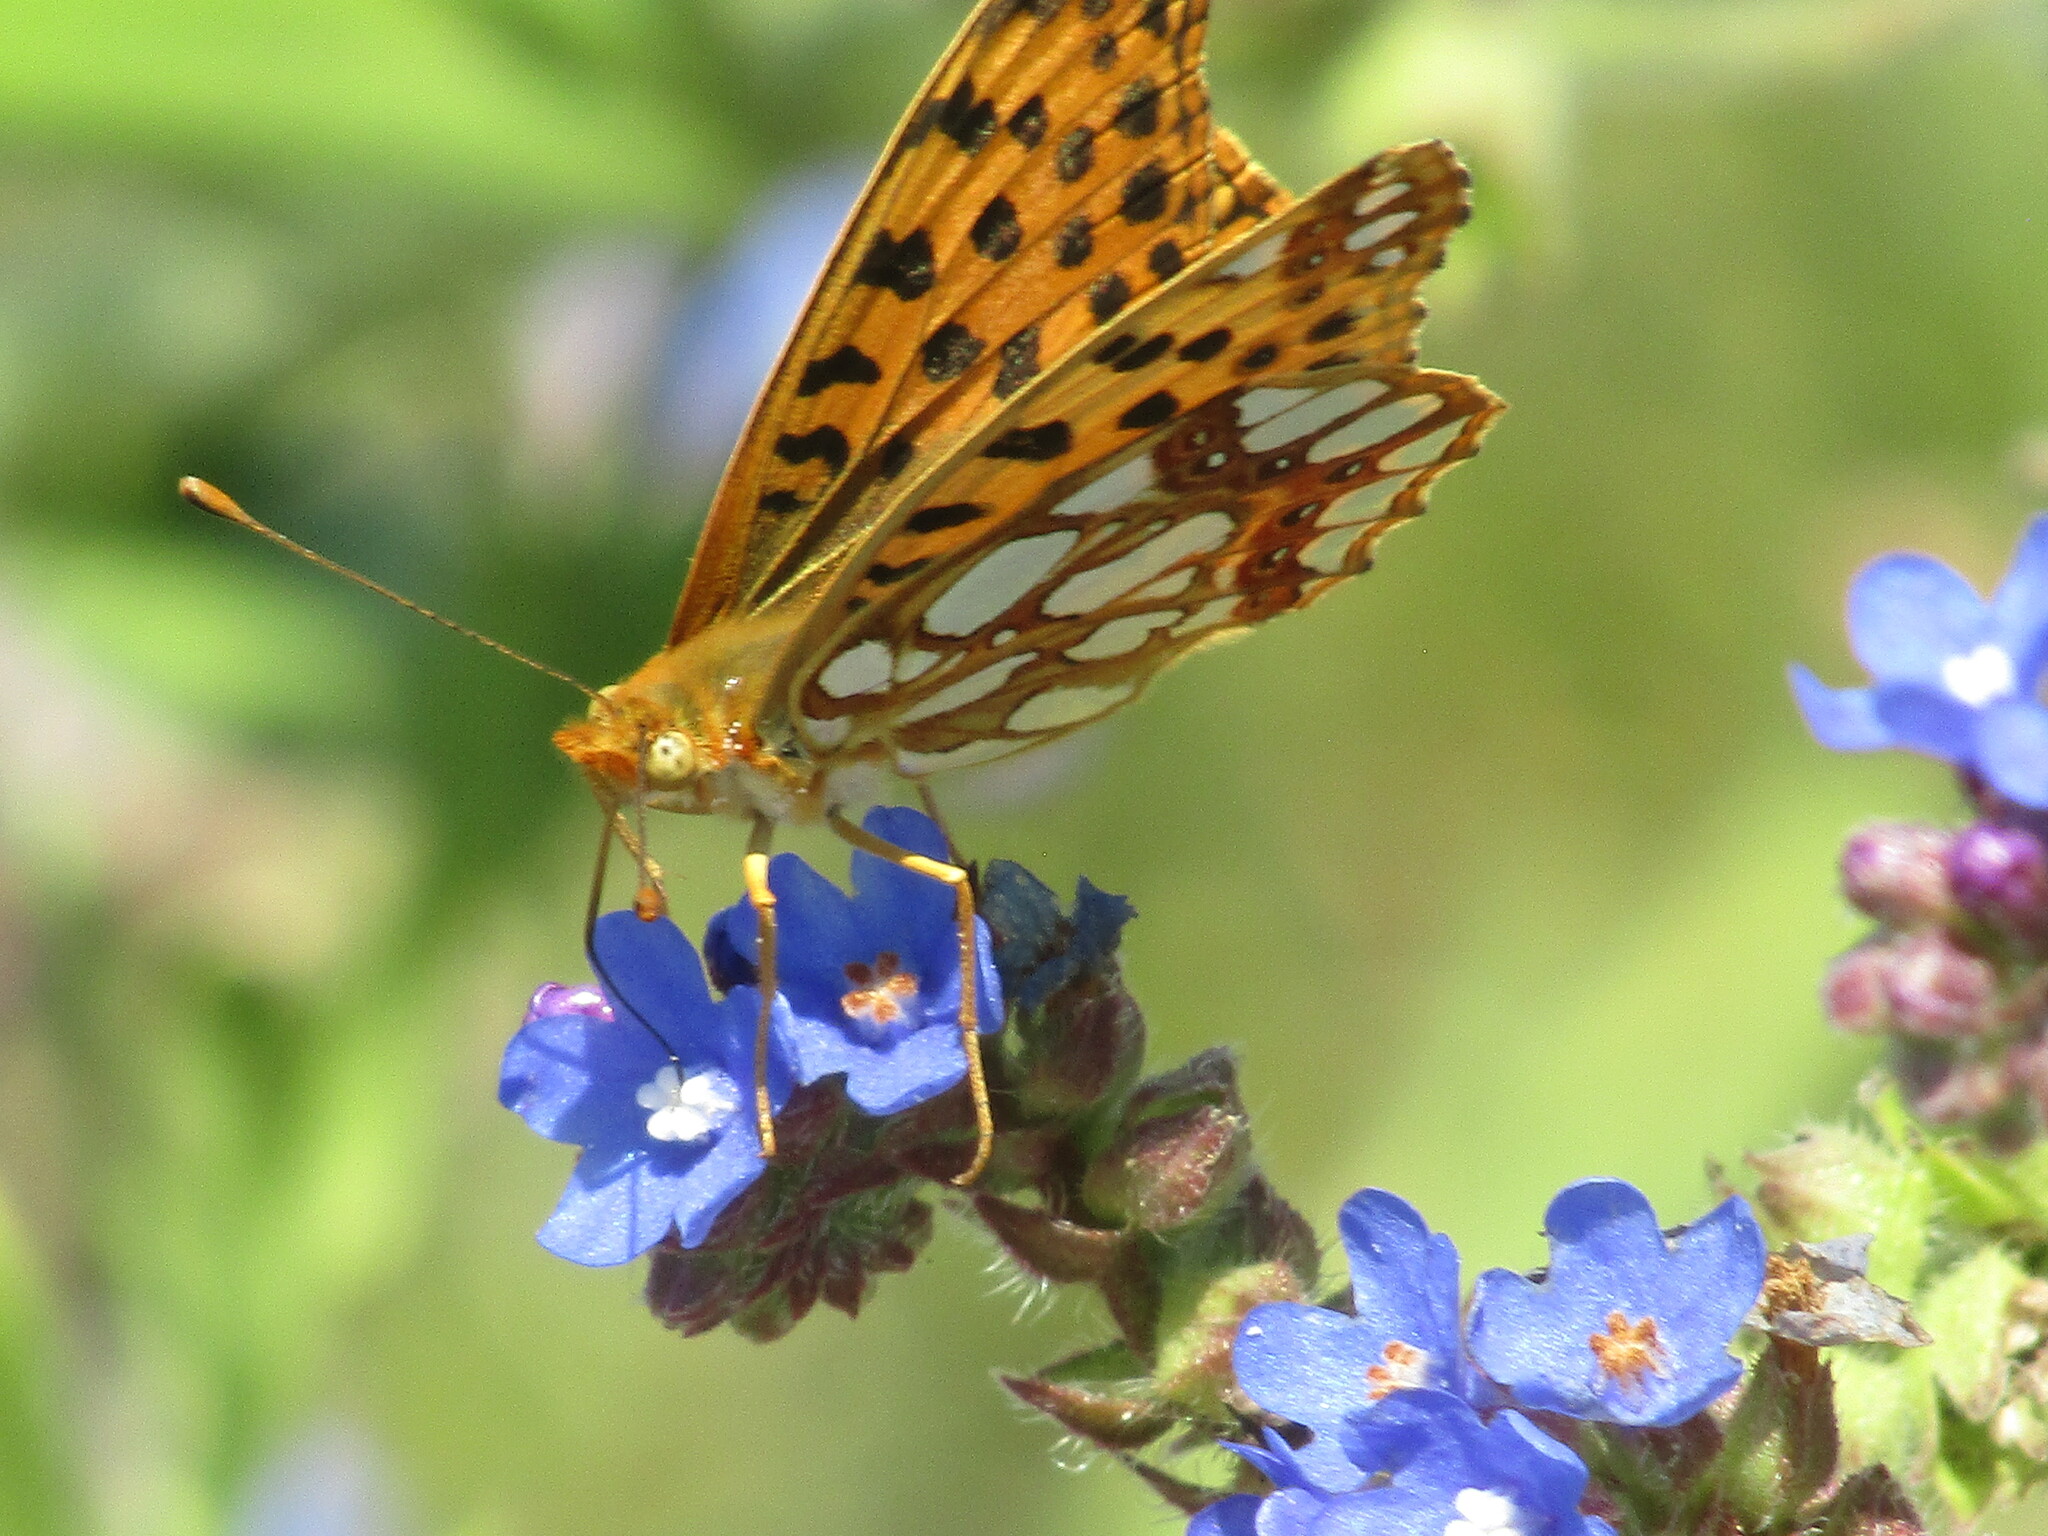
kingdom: Animalia
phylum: Arthropoda
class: Insecta
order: Lepidoptera
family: Nymphalidae
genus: Issoria
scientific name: Issoria lathonia
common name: Queen of spain fritillary
